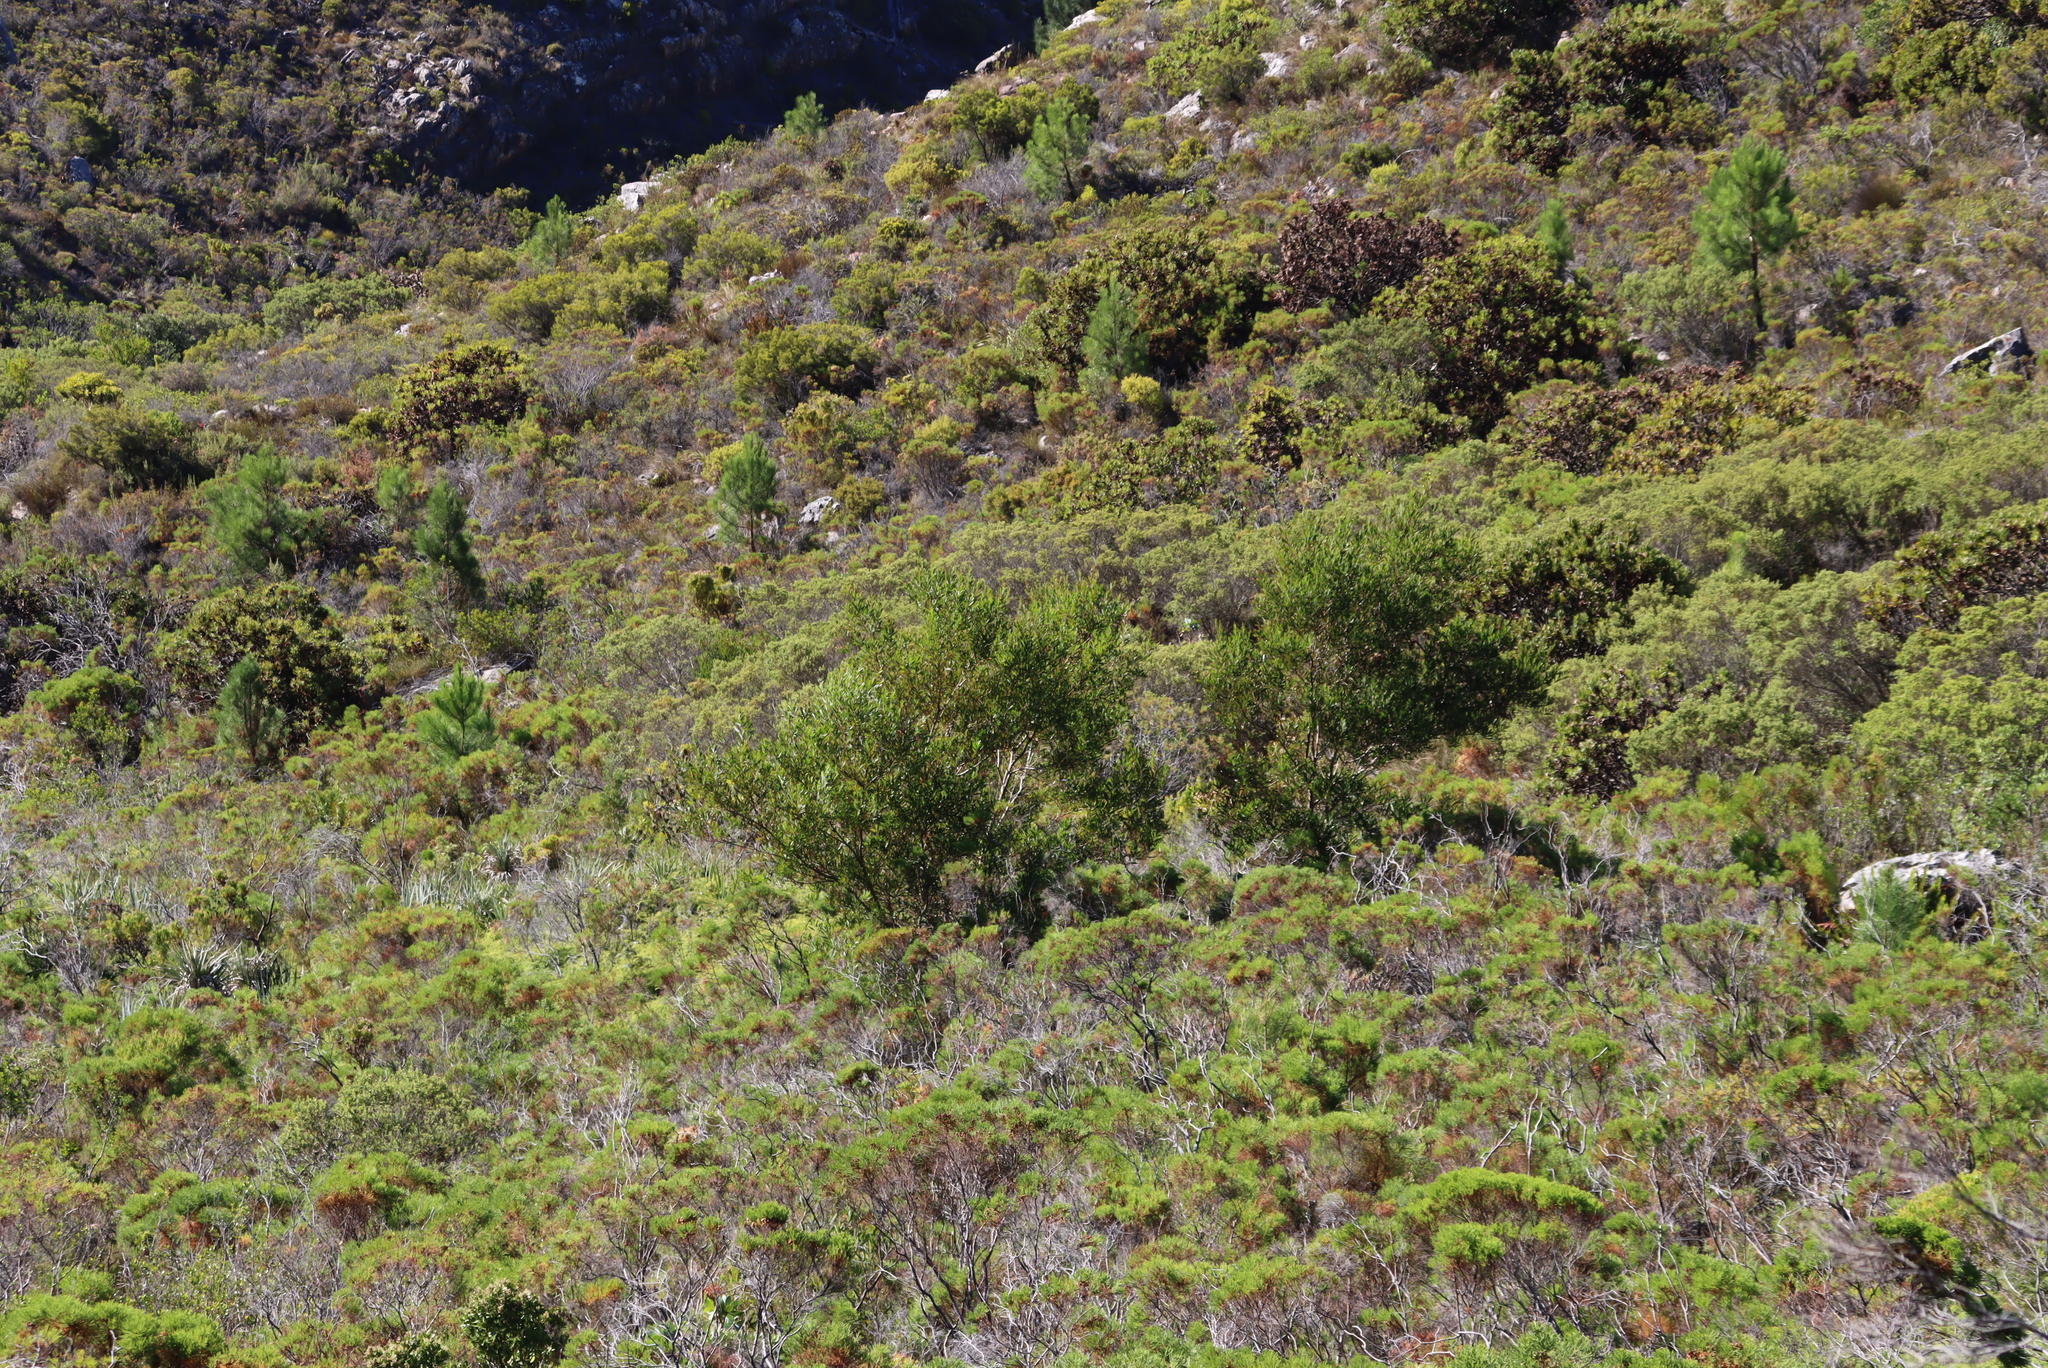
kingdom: Plantae
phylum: Tracheophyta
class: Magnoliopsida
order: Fabales
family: Fabaceae
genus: Acacia
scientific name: Acacia longifolia
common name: Sydney golden wattle
